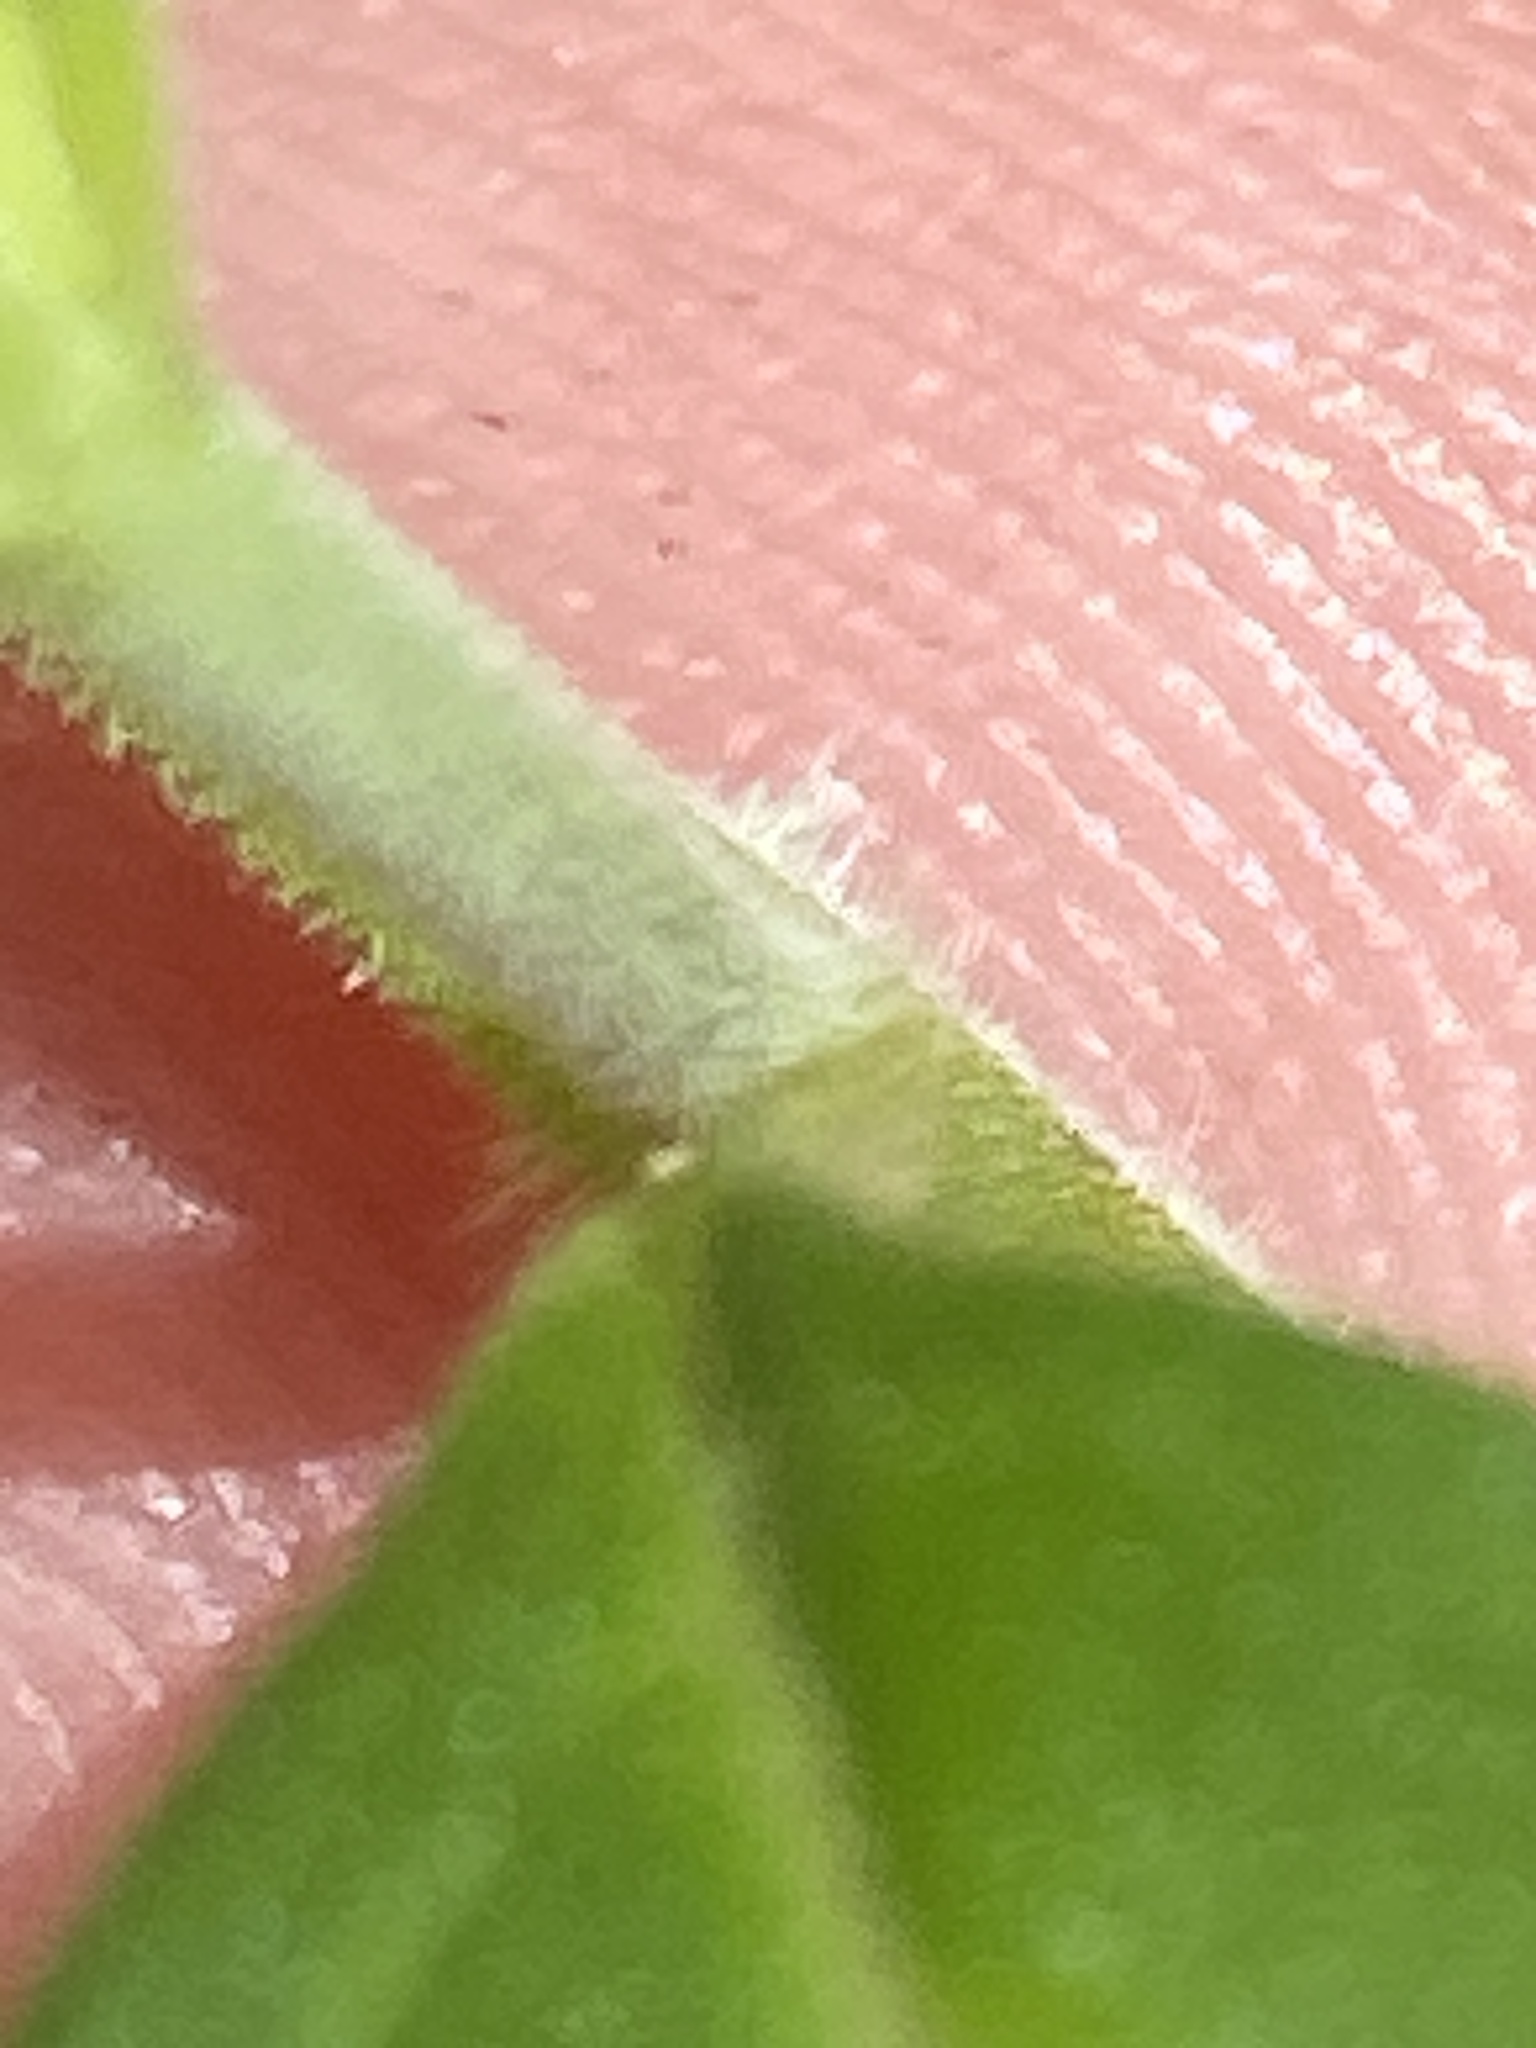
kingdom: Plantae
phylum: Tracheophyta
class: Magnoliopsida
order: Lamiales
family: Lamiaceae
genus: Trichostema
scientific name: Trichostema dichotomum
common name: Bastard pennyroyal
